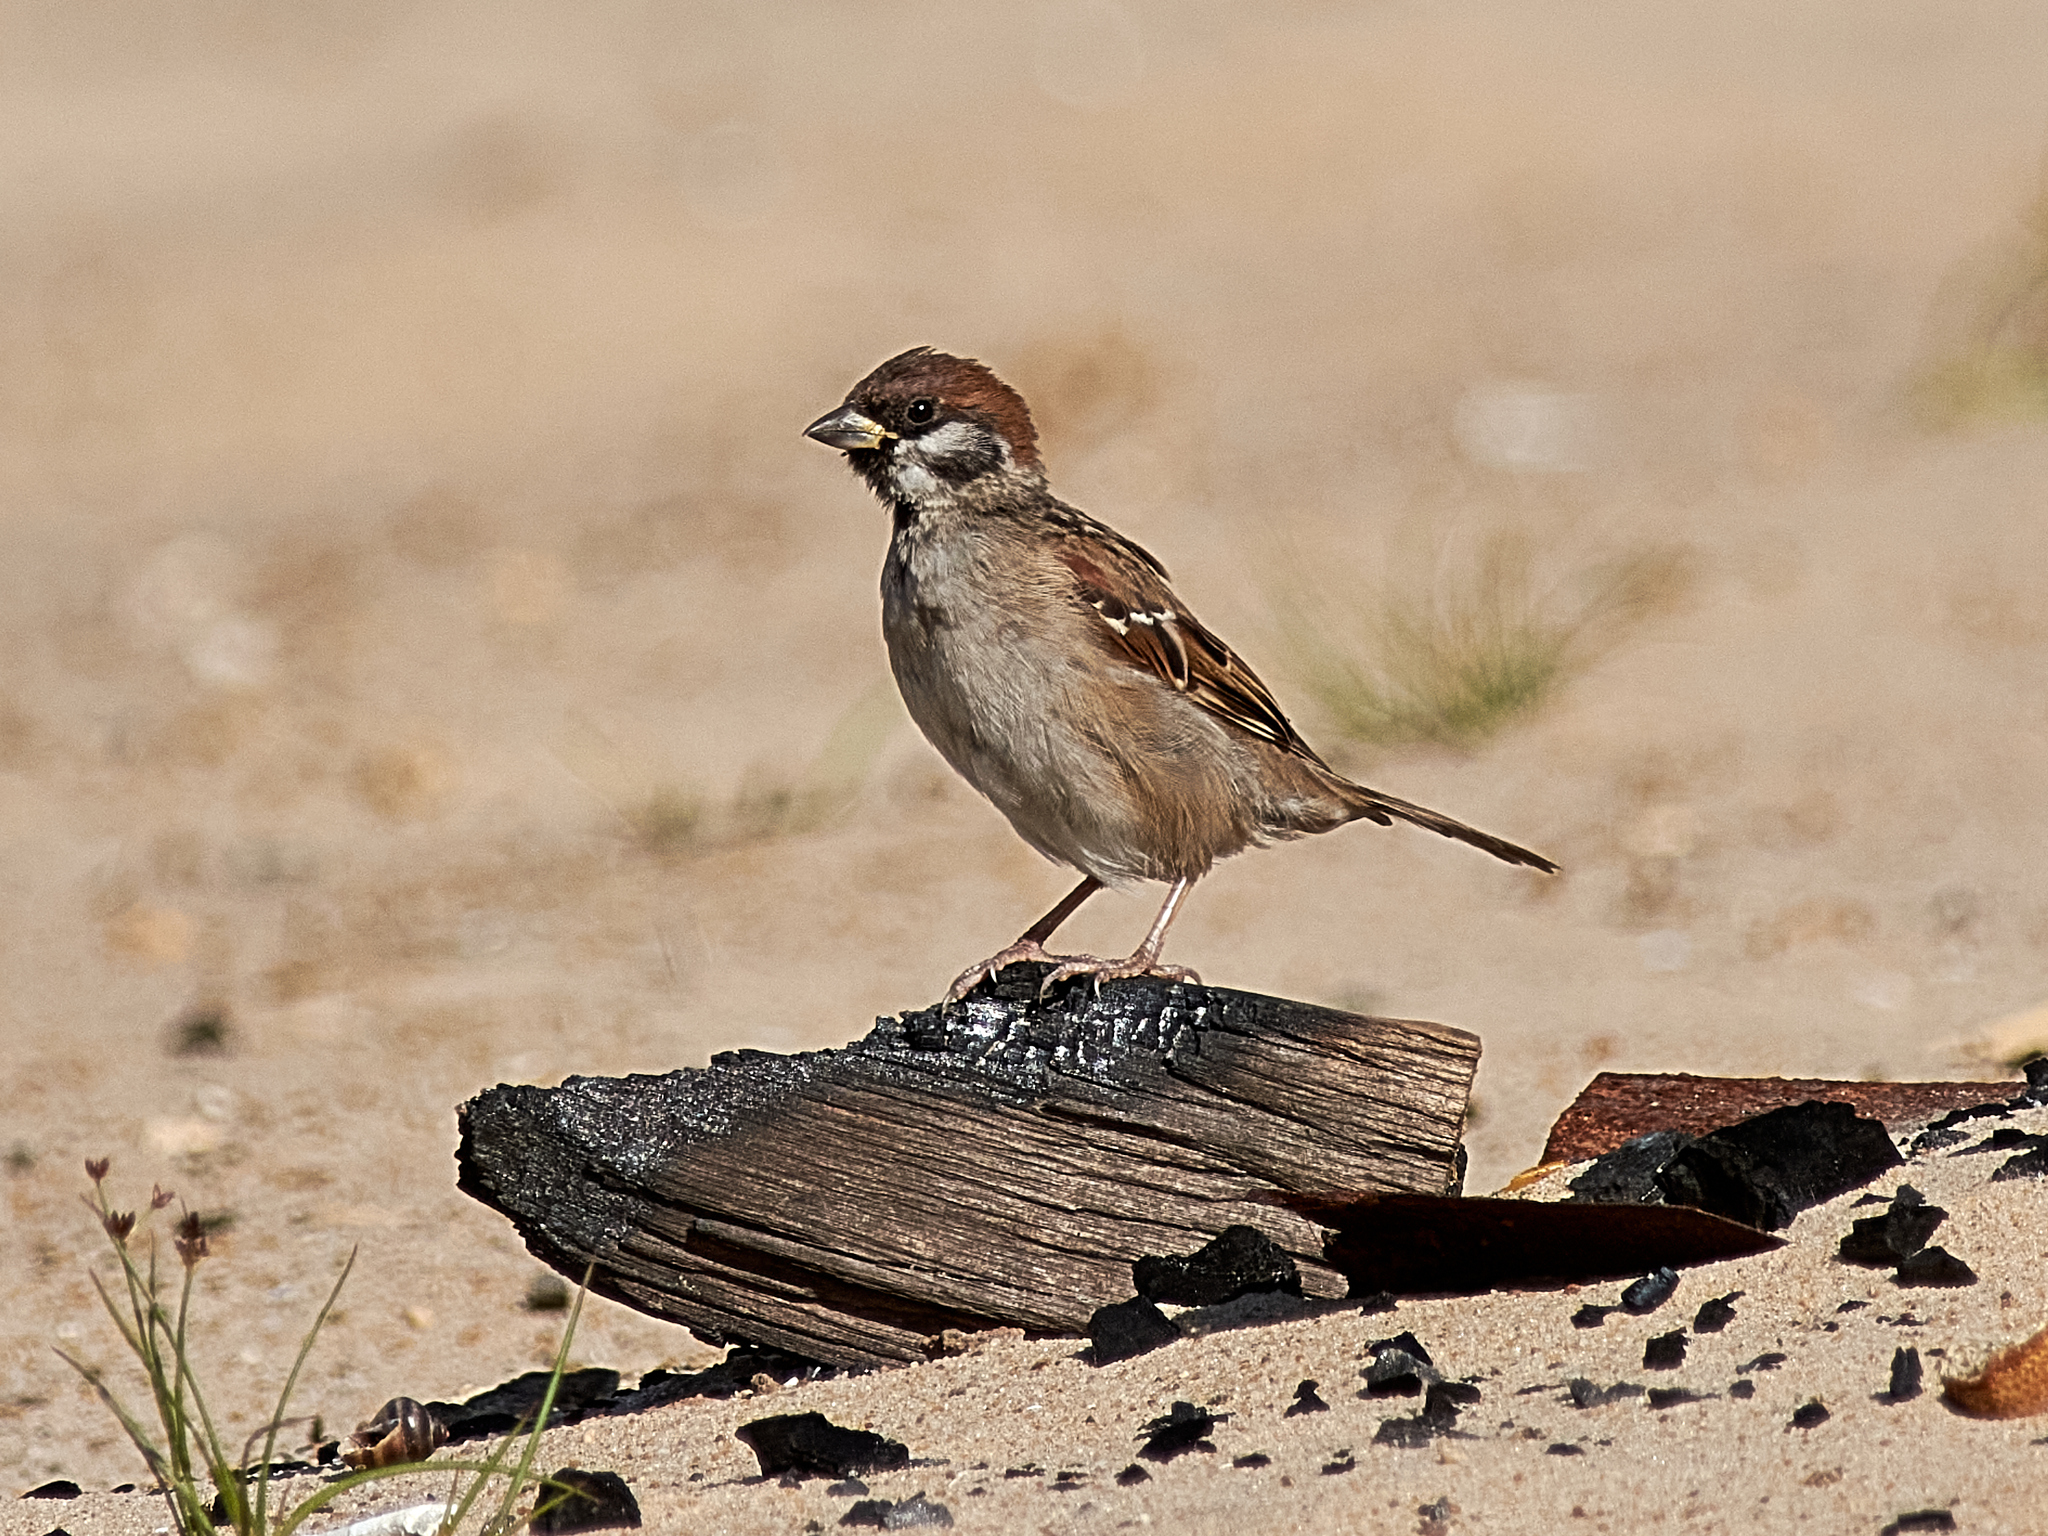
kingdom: Animalia
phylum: Chordata
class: Aves
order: Passeriformes
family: Passeridae
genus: Passer
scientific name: Passer montanus
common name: Eurasian tree sparrow
